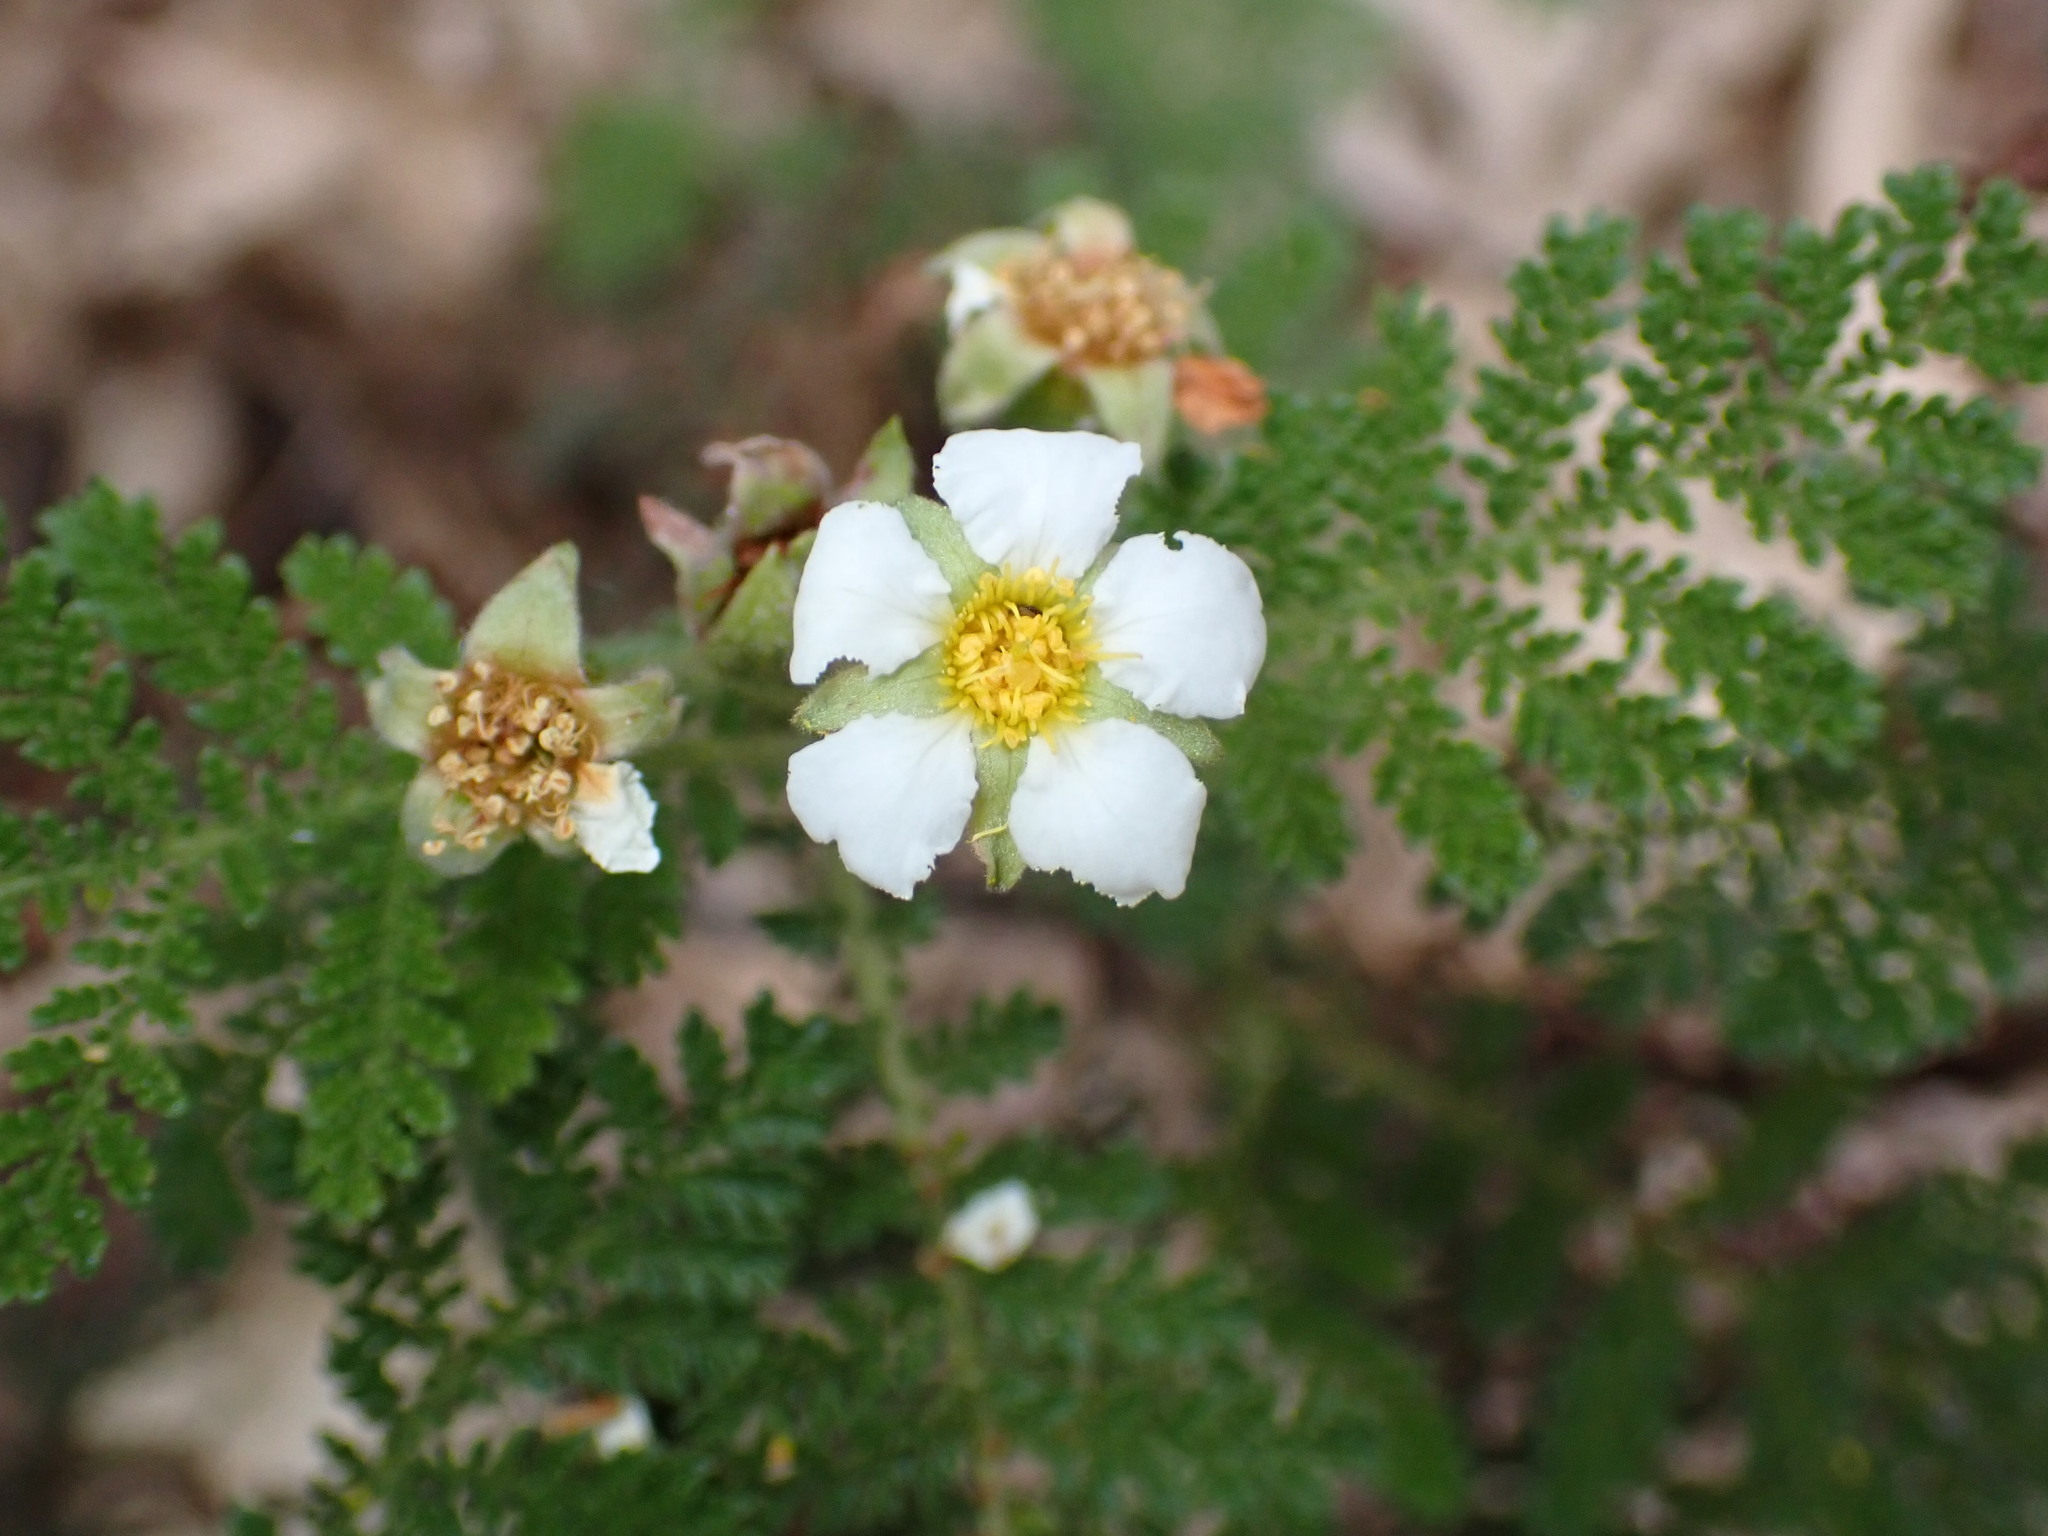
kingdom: Plantae
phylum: Tracheophyta
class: Magnoliopsida
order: Rosales
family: Rosaceae
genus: Chamaebatia
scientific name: Chamaebatia foliolosa
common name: Mountain misery
